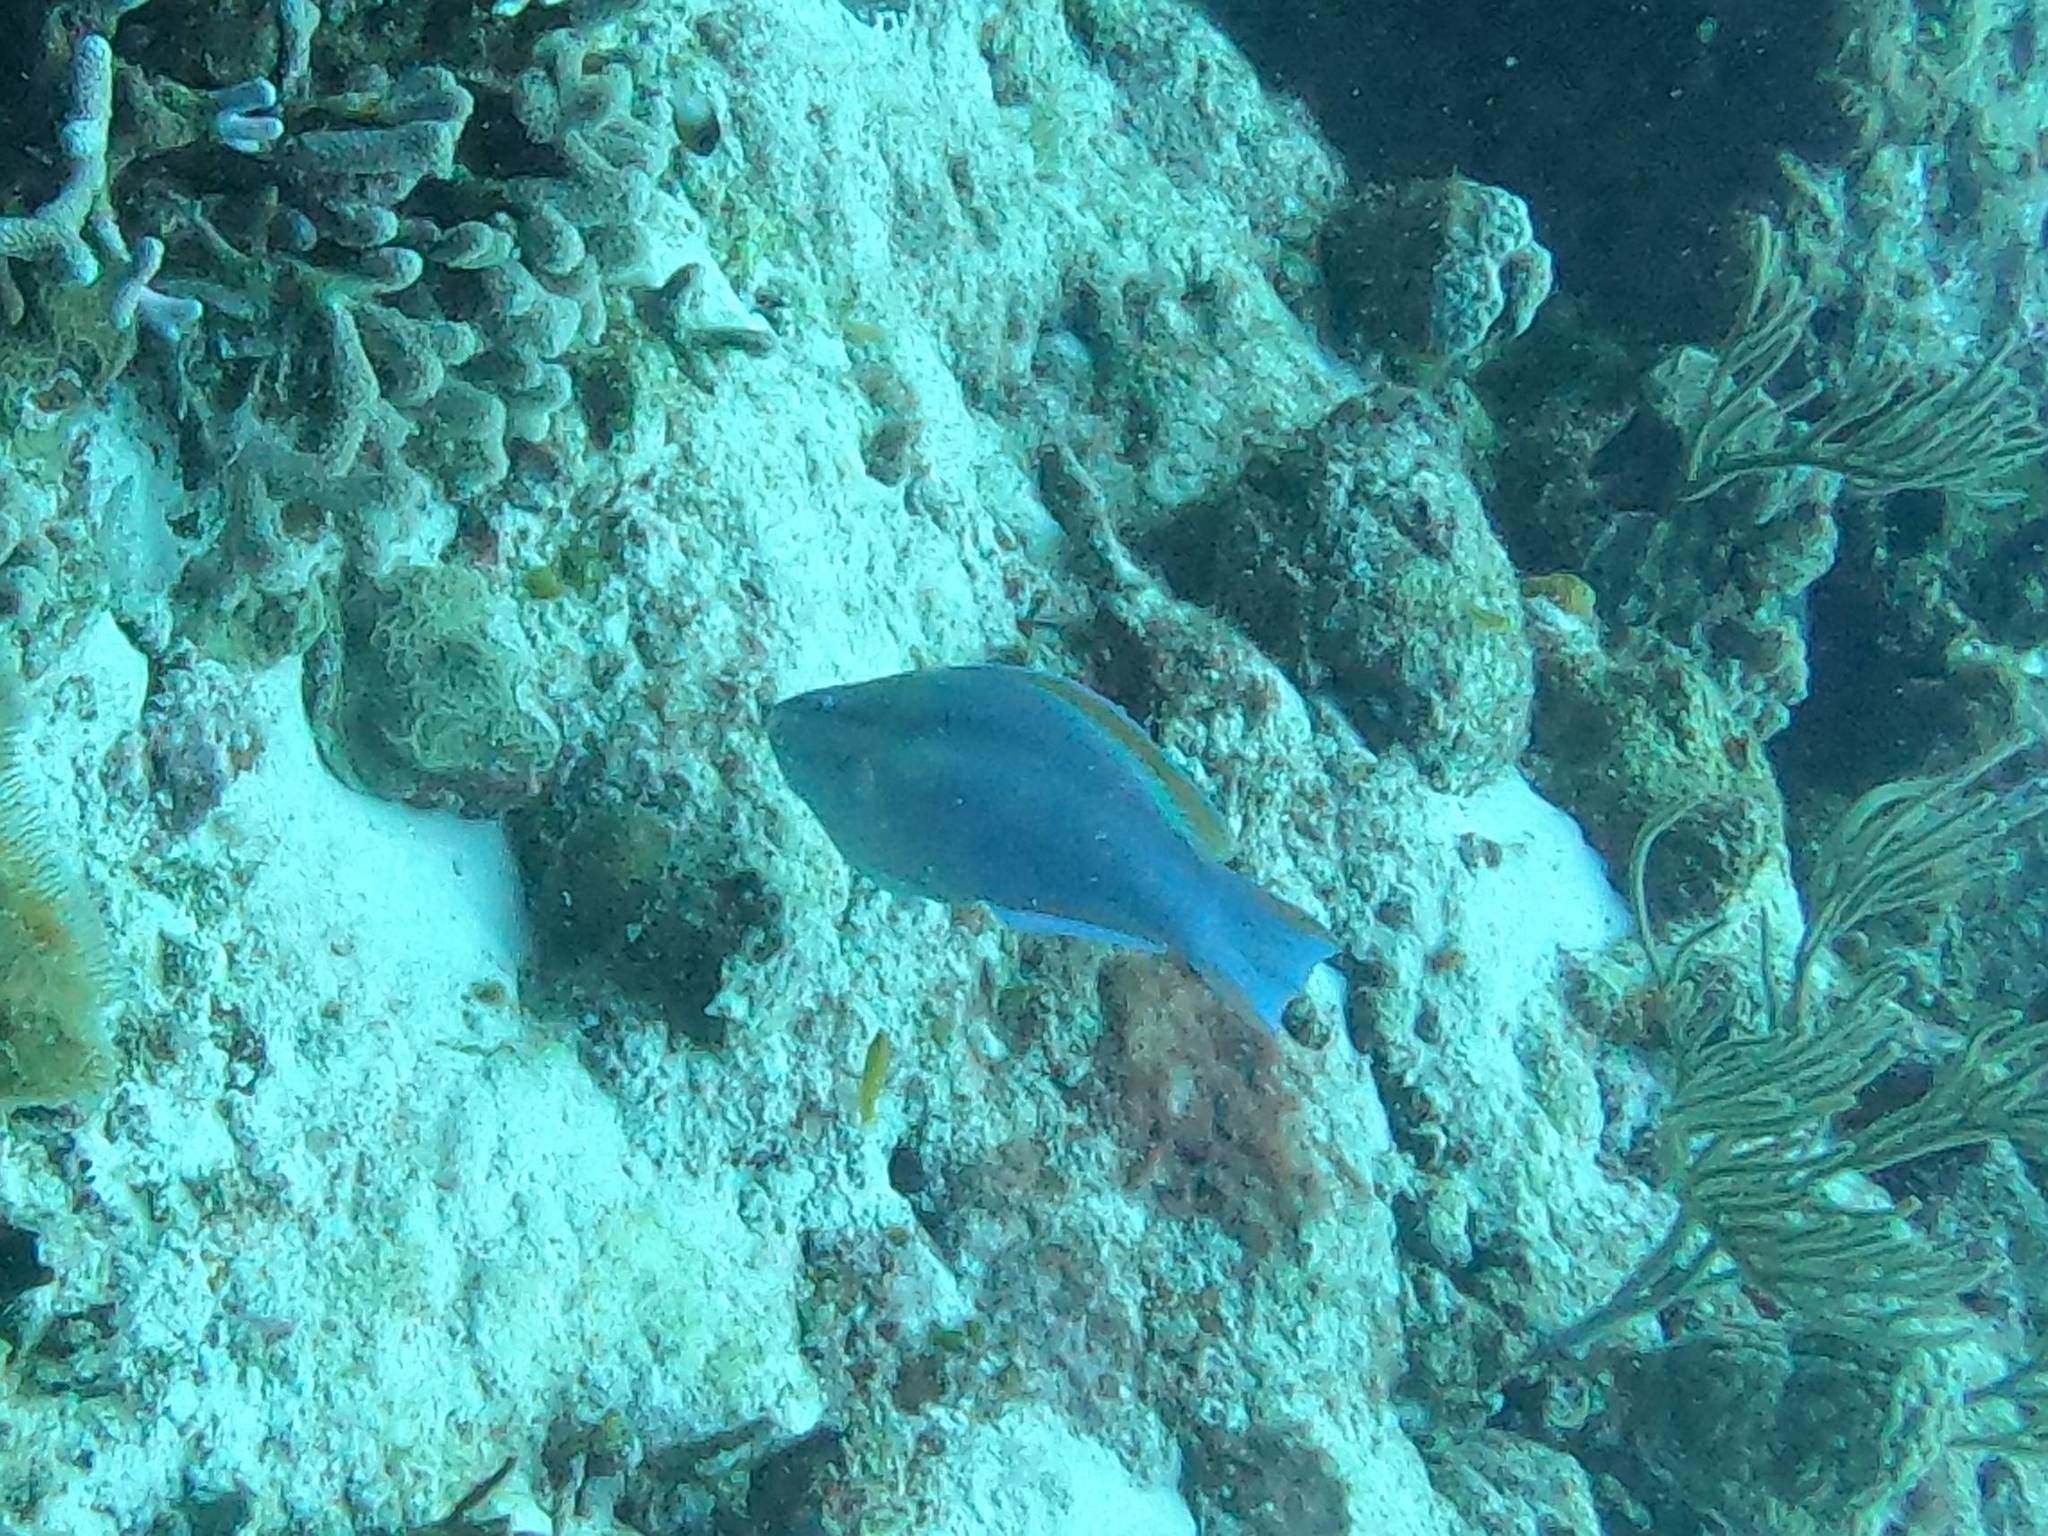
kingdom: Animalia
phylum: Chordata
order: Perciformes
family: Scaridae
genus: Scarus
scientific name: Scarus taeniopterus
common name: Princess parrotfish
